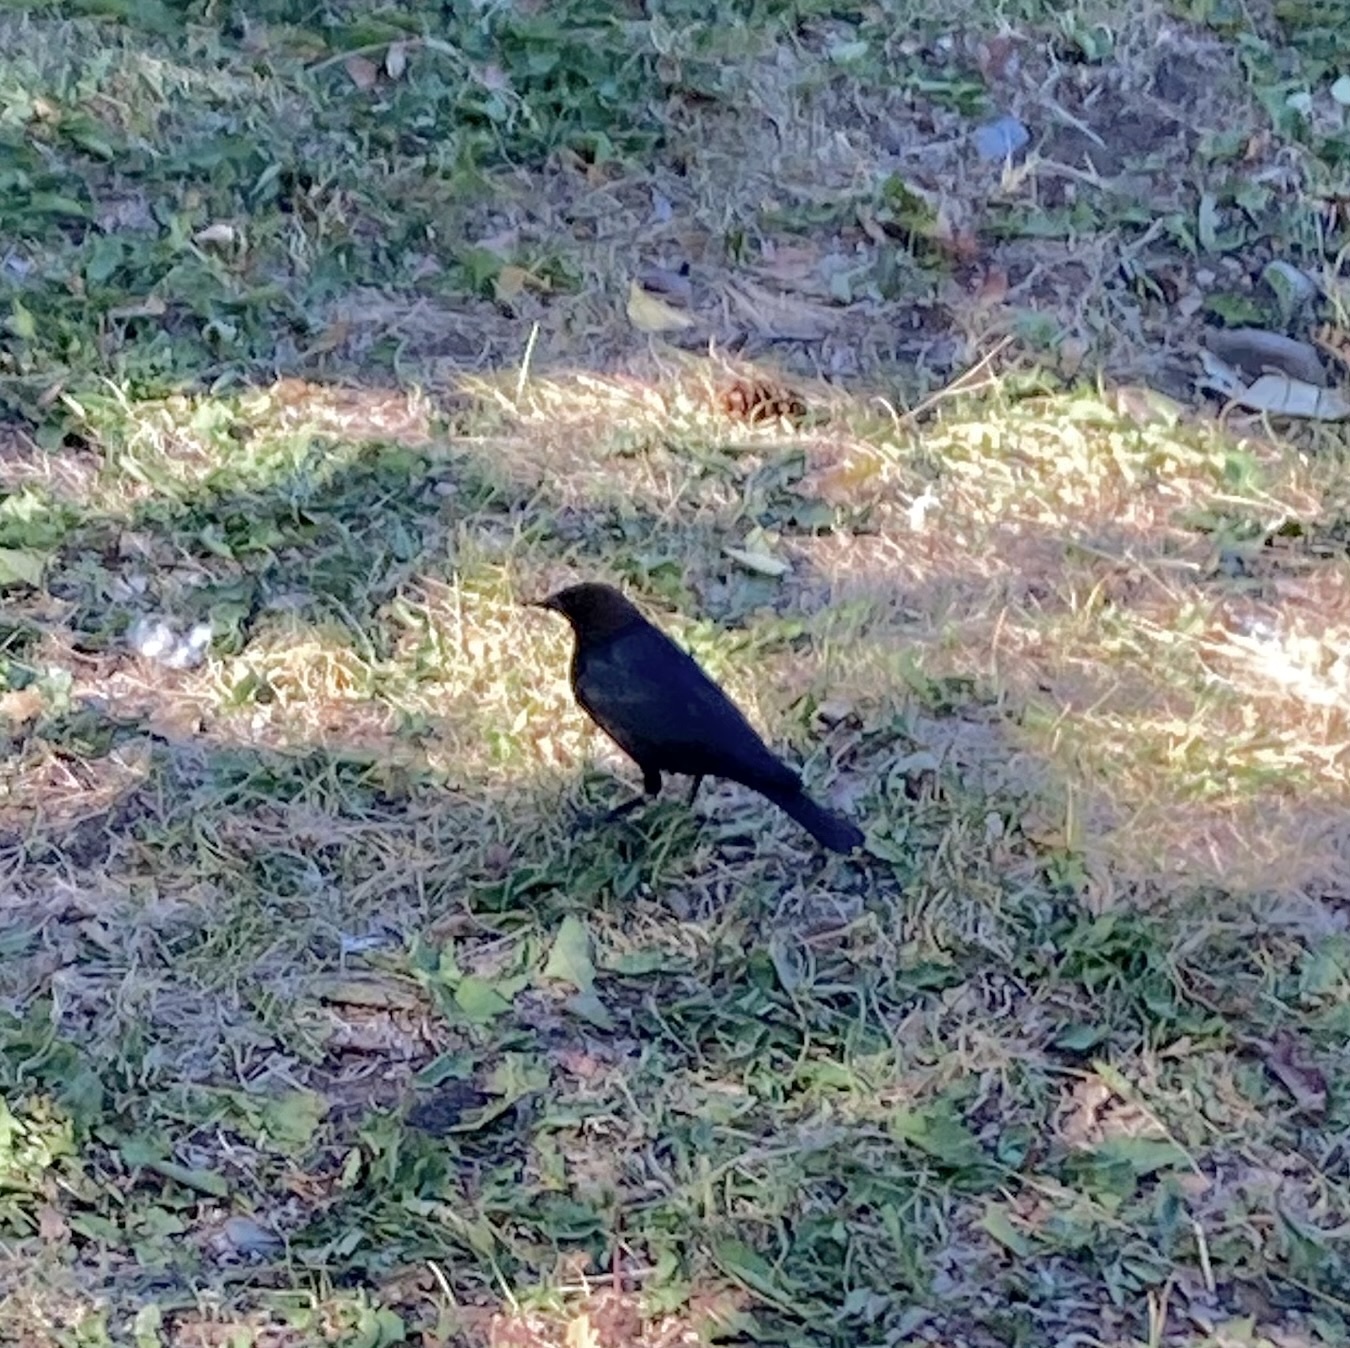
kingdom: Animalia
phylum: Chordata
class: Aves
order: Passeriformes
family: Icteridae
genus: Molothrus
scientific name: Molothrus ater
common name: Brown-headed cowbird
